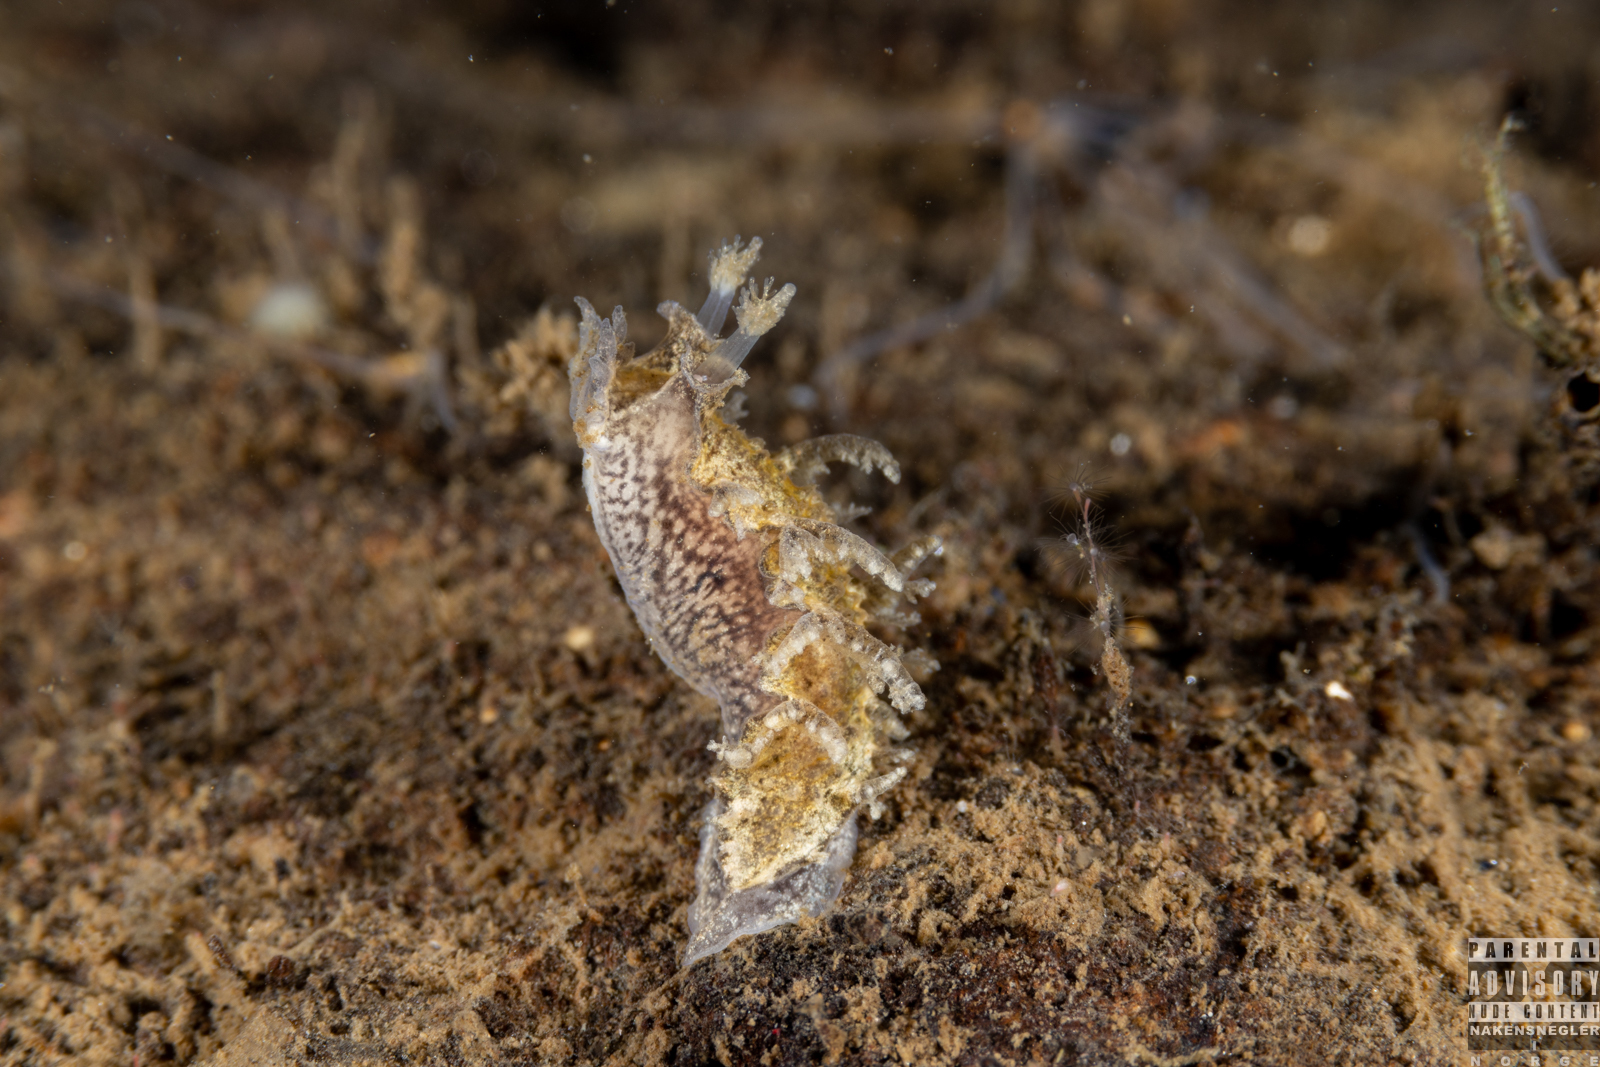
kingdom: Animalia
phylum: Mollusca
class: Gastropoda
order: Nudibranchia
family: Tritoniidae
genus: Duvaucelia
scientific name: Duvaucelia plebeia
